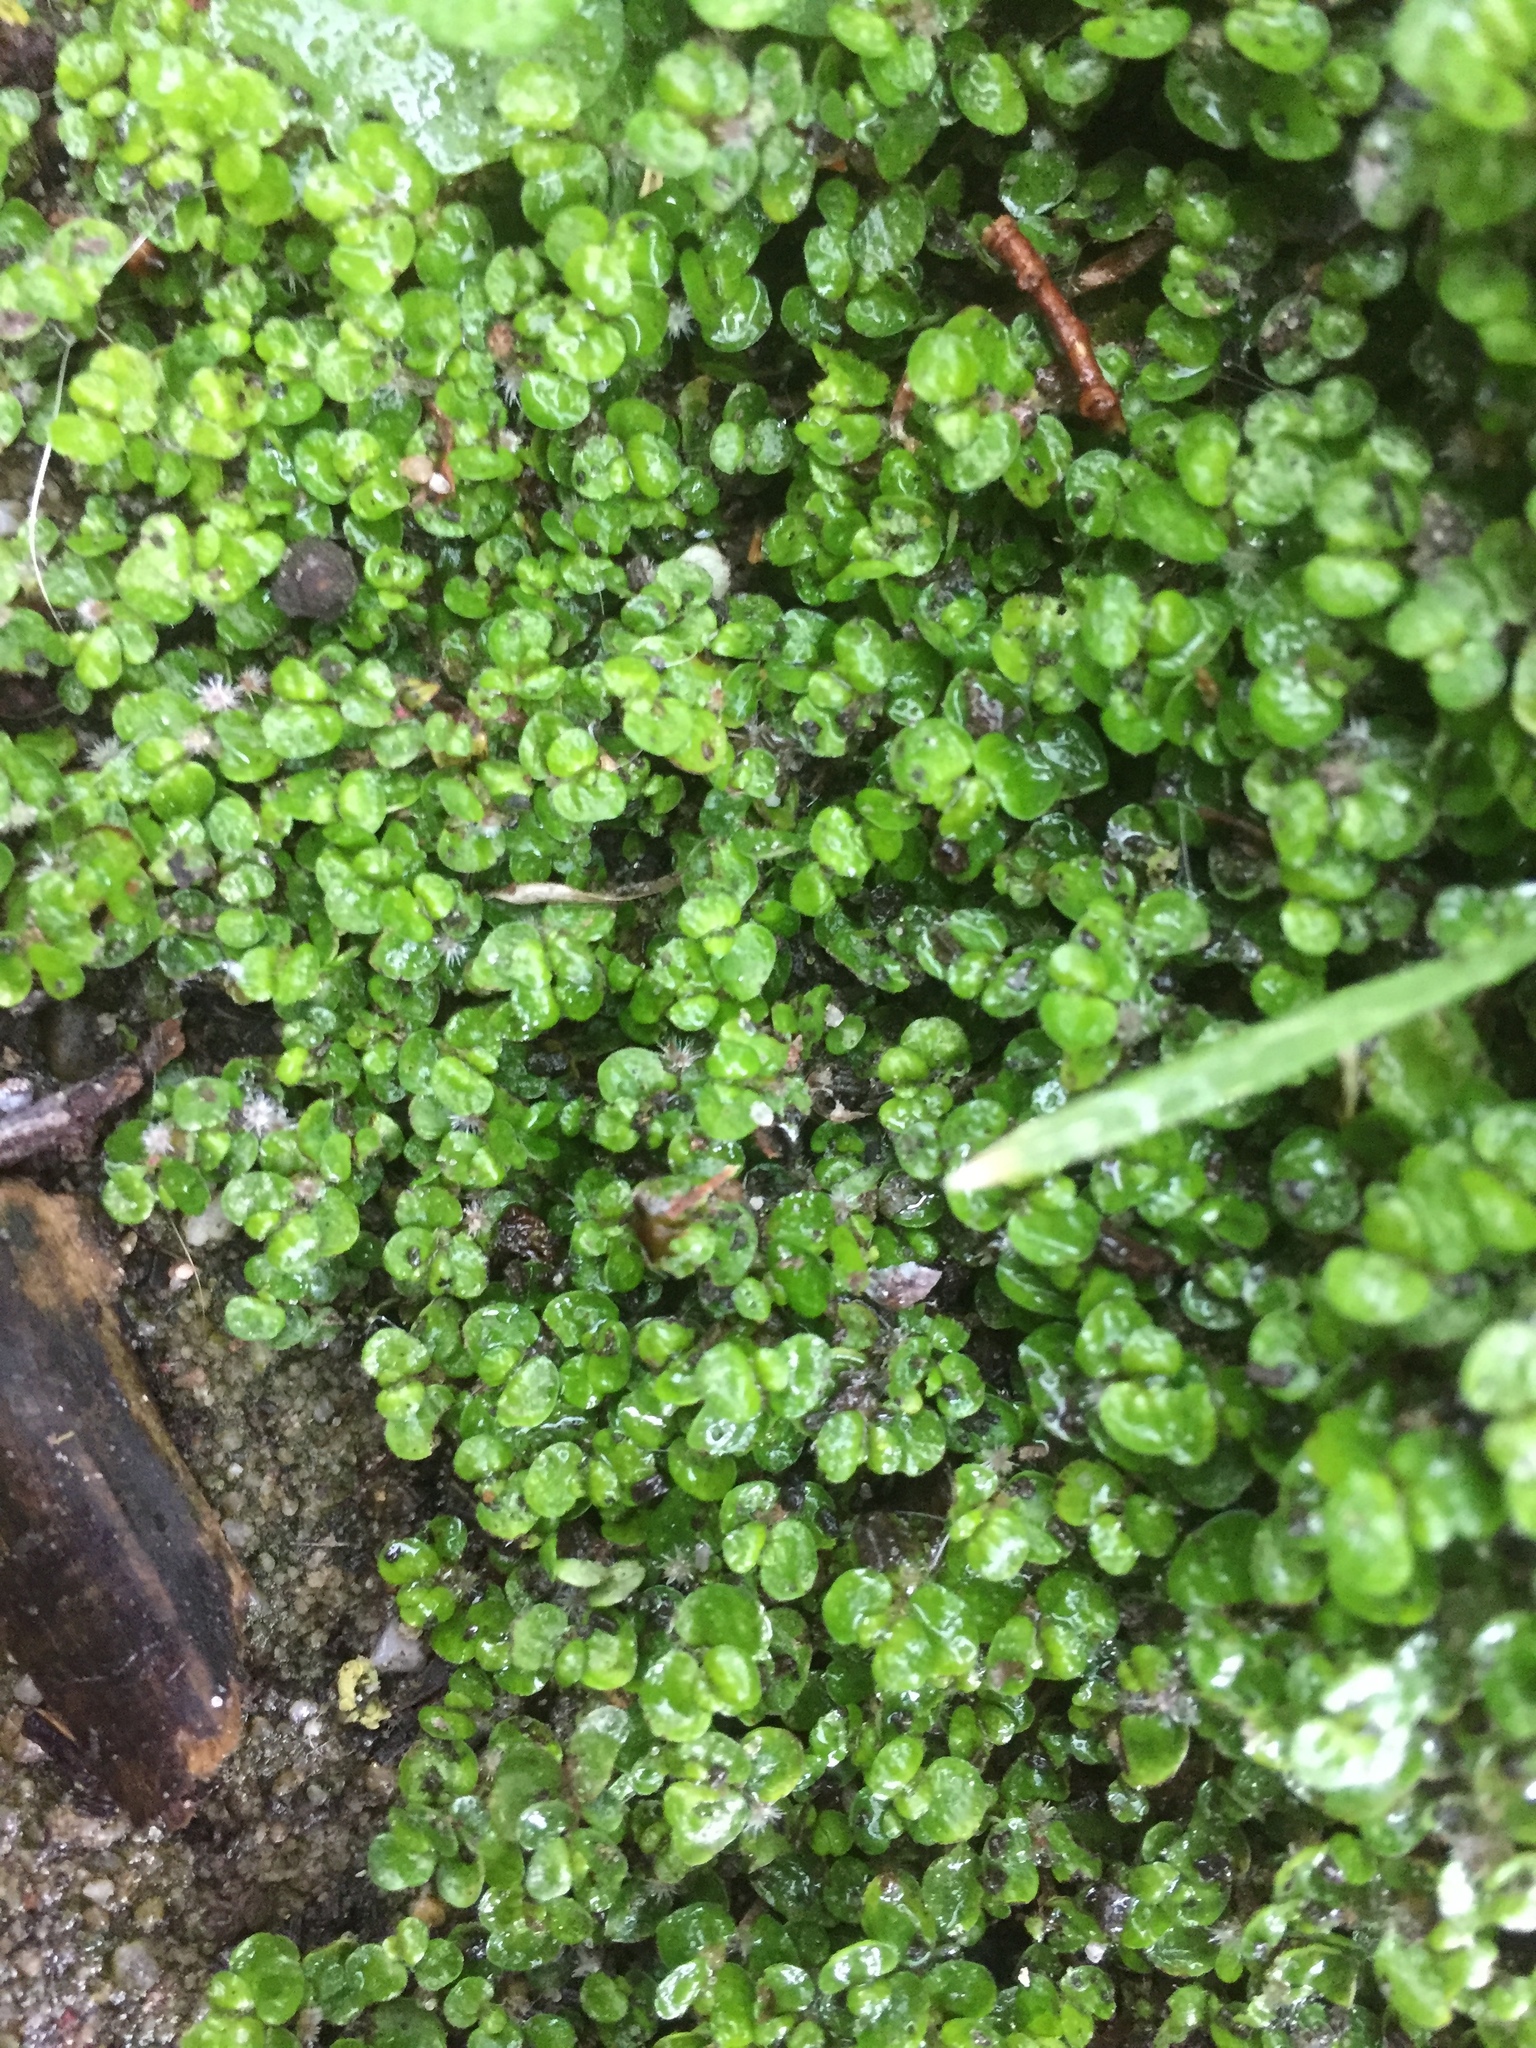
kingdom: Plantae
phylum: Tracheophyta
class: Magnoliopsida
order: Rosales
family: Urticaceae
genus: Soleirolia
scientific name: Soleirolia soleirolii
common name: Mind-your-own-business
